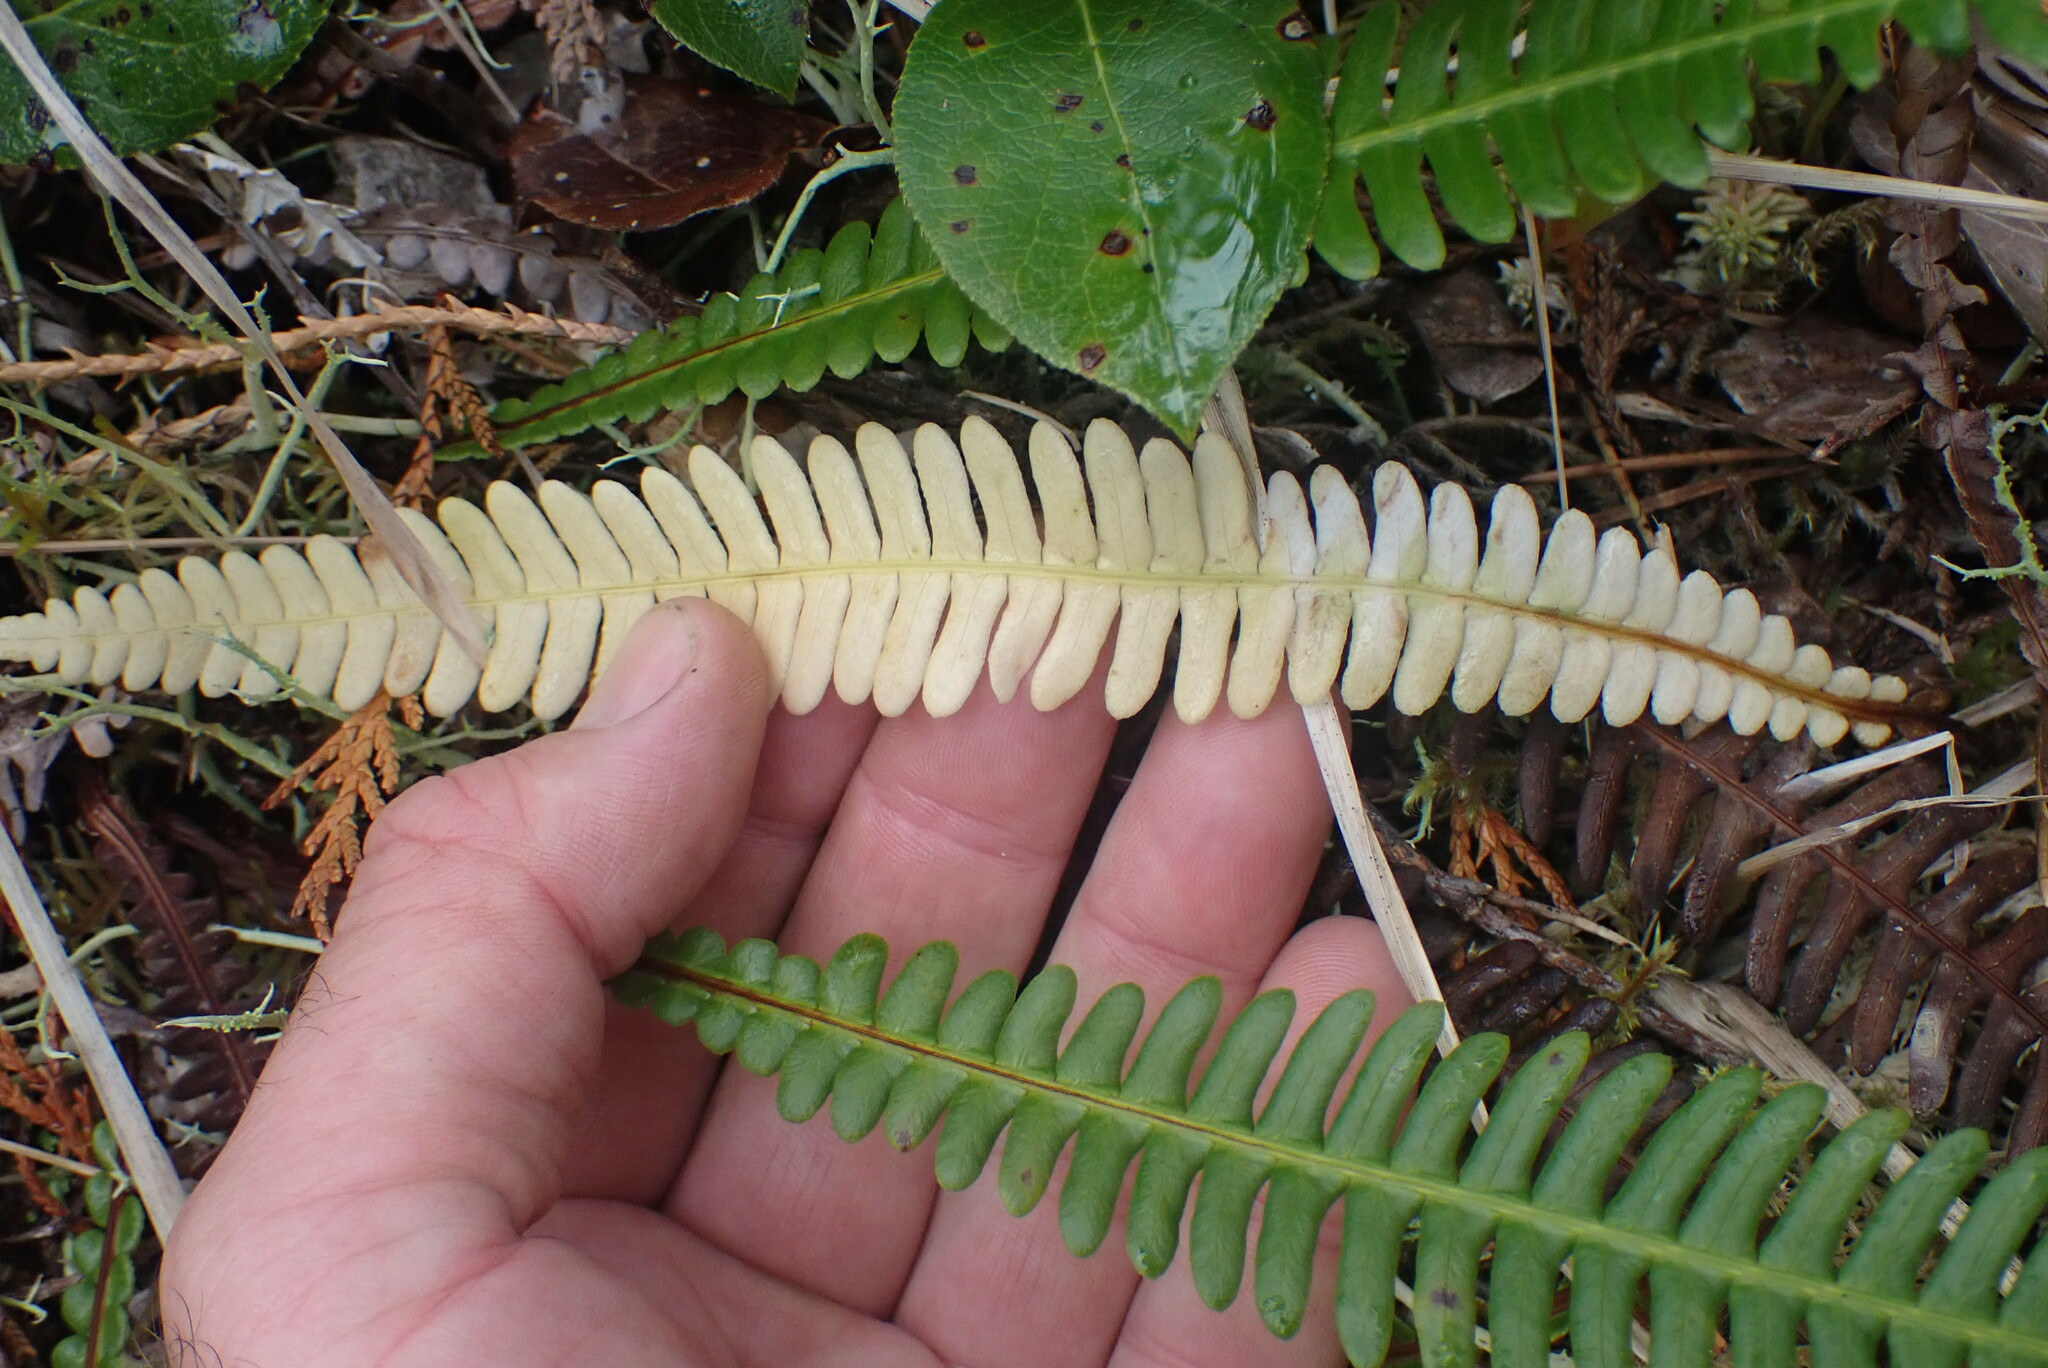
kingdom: Plantae
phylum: Tracheophyta
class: Polypodiopsida
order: Polypodiales
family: Blechnaceae
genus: Struthiopteris
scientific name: Struthiopteris spicant
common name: Deer fern
